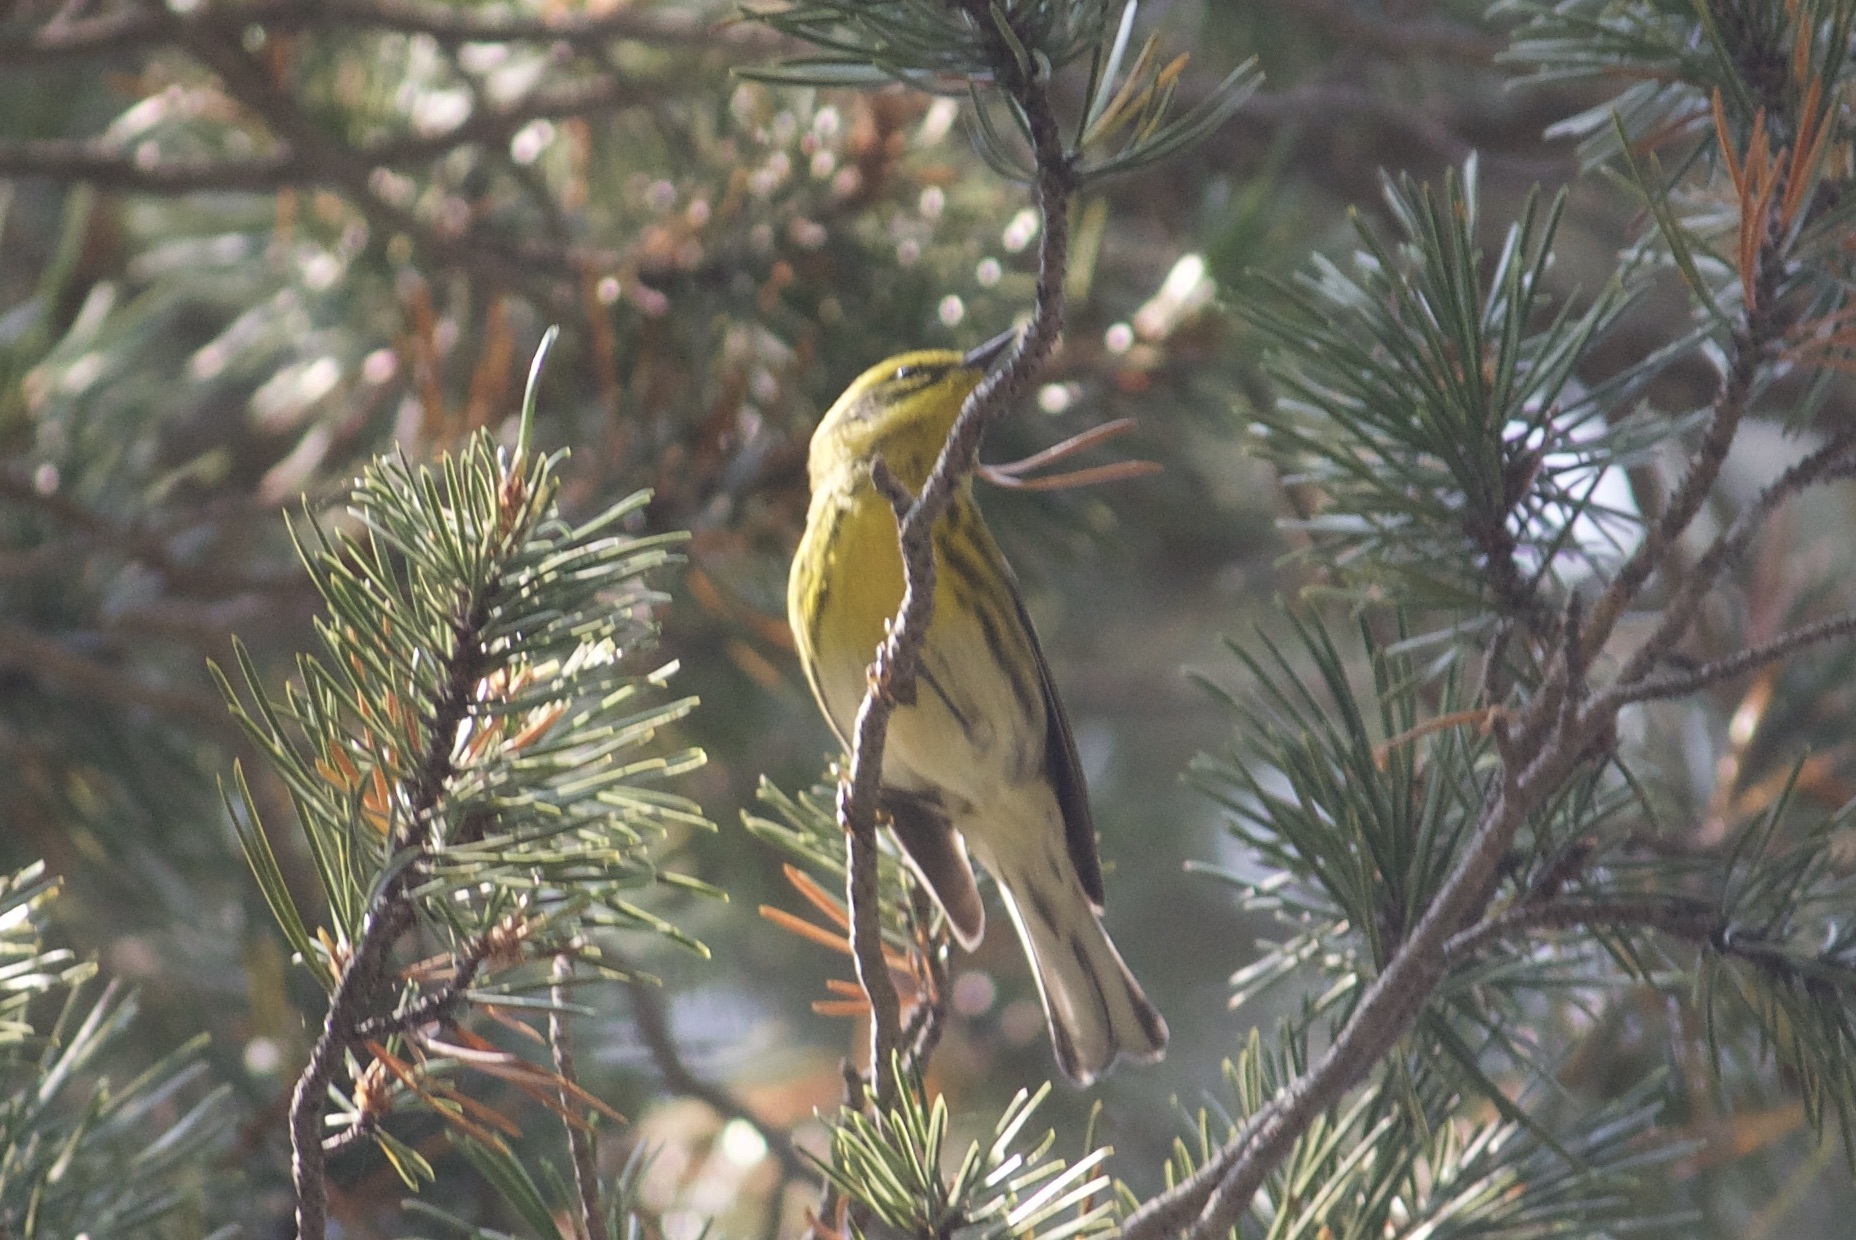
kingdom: Animalia
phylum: Chordata
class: Aves
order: Passeriformes
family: Parulidae
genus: Setophaga
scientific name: Setophaga townsendi
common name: Townsend's warbler
